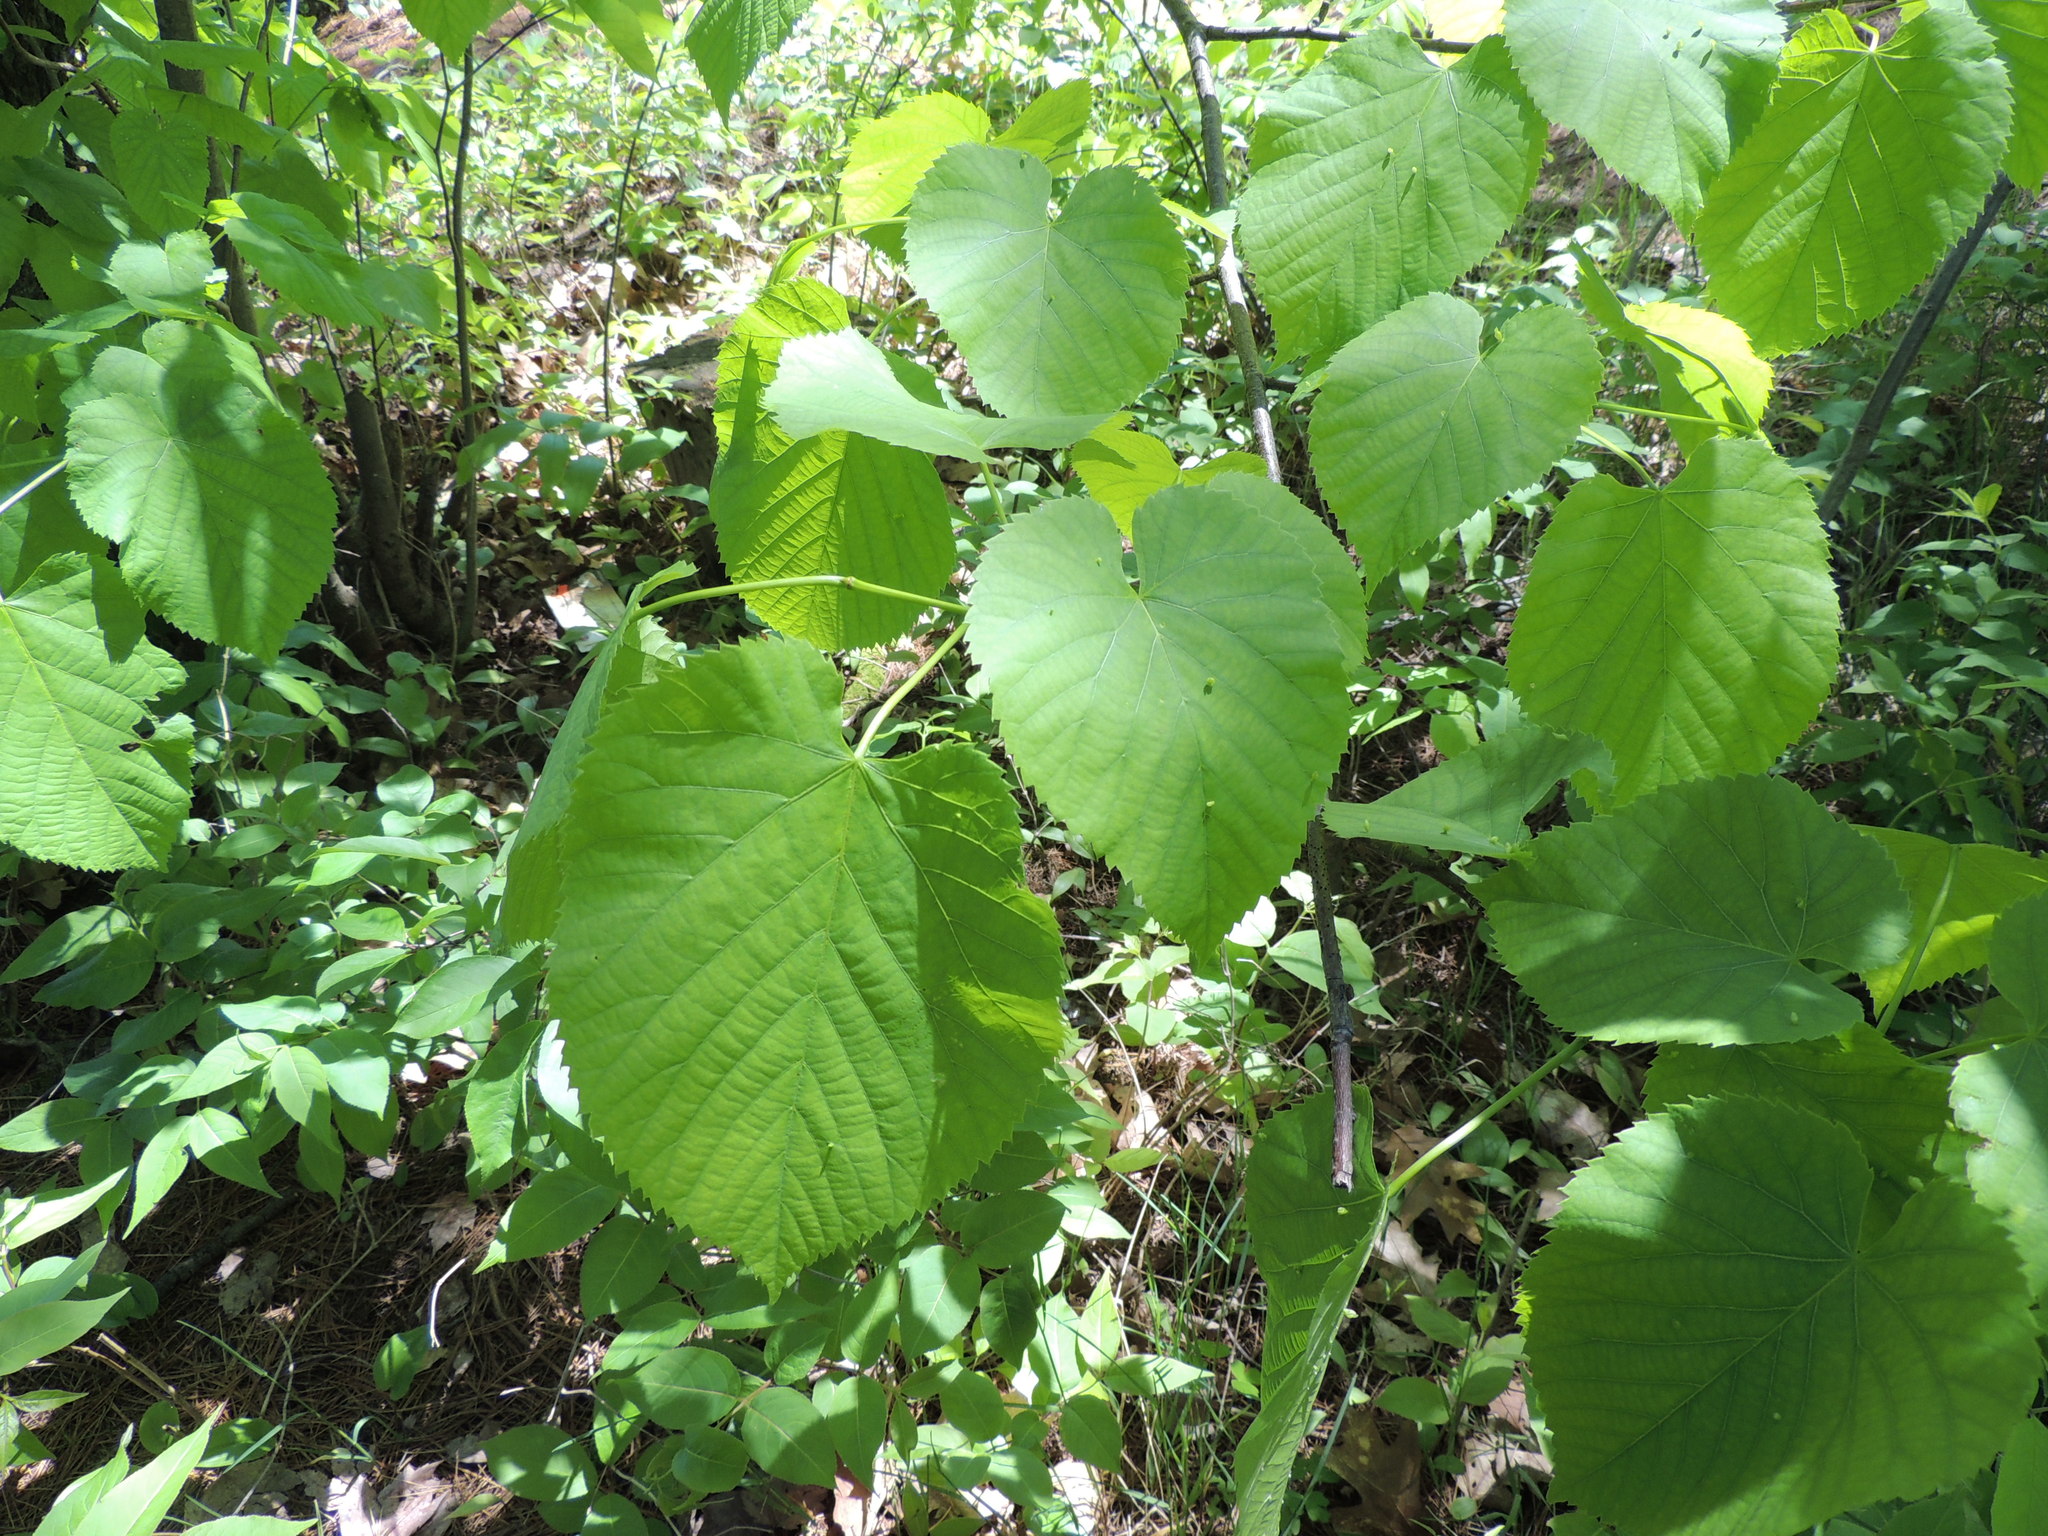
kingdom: Plantae
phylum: Tracheophyta
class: Magnoliopsida
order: Malvales
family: Malvaceae
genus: Tilia
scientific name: Tilia americana
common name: Basswood
